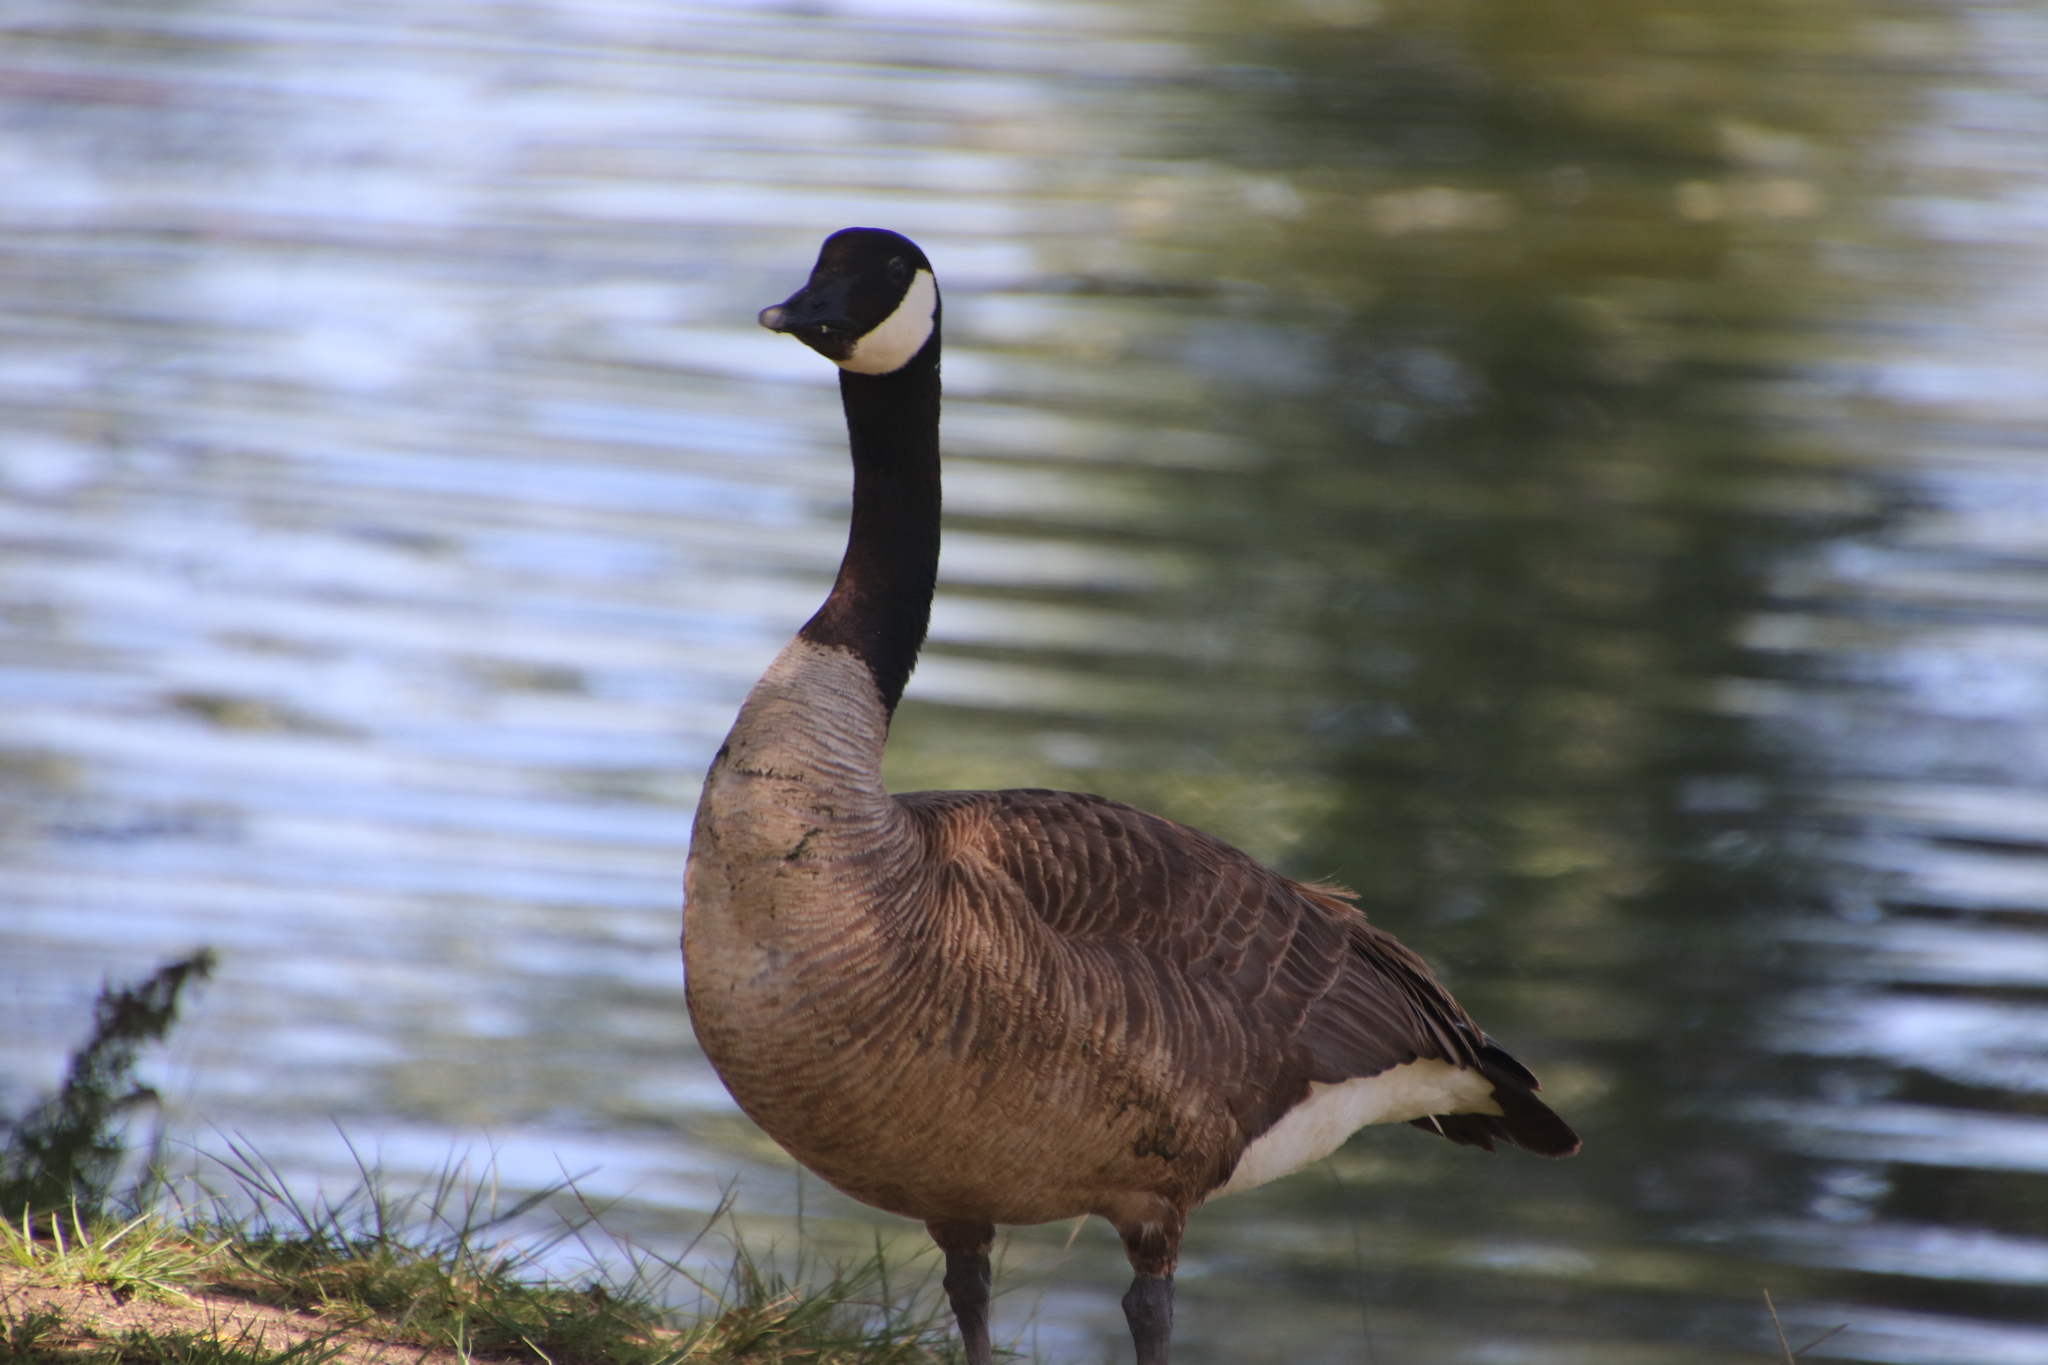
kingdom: Animalia
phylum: Chordata
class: Aves
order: Anseriformes
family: Anatidae
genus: Branta
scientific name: Branta canadensis
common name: Canada goose
